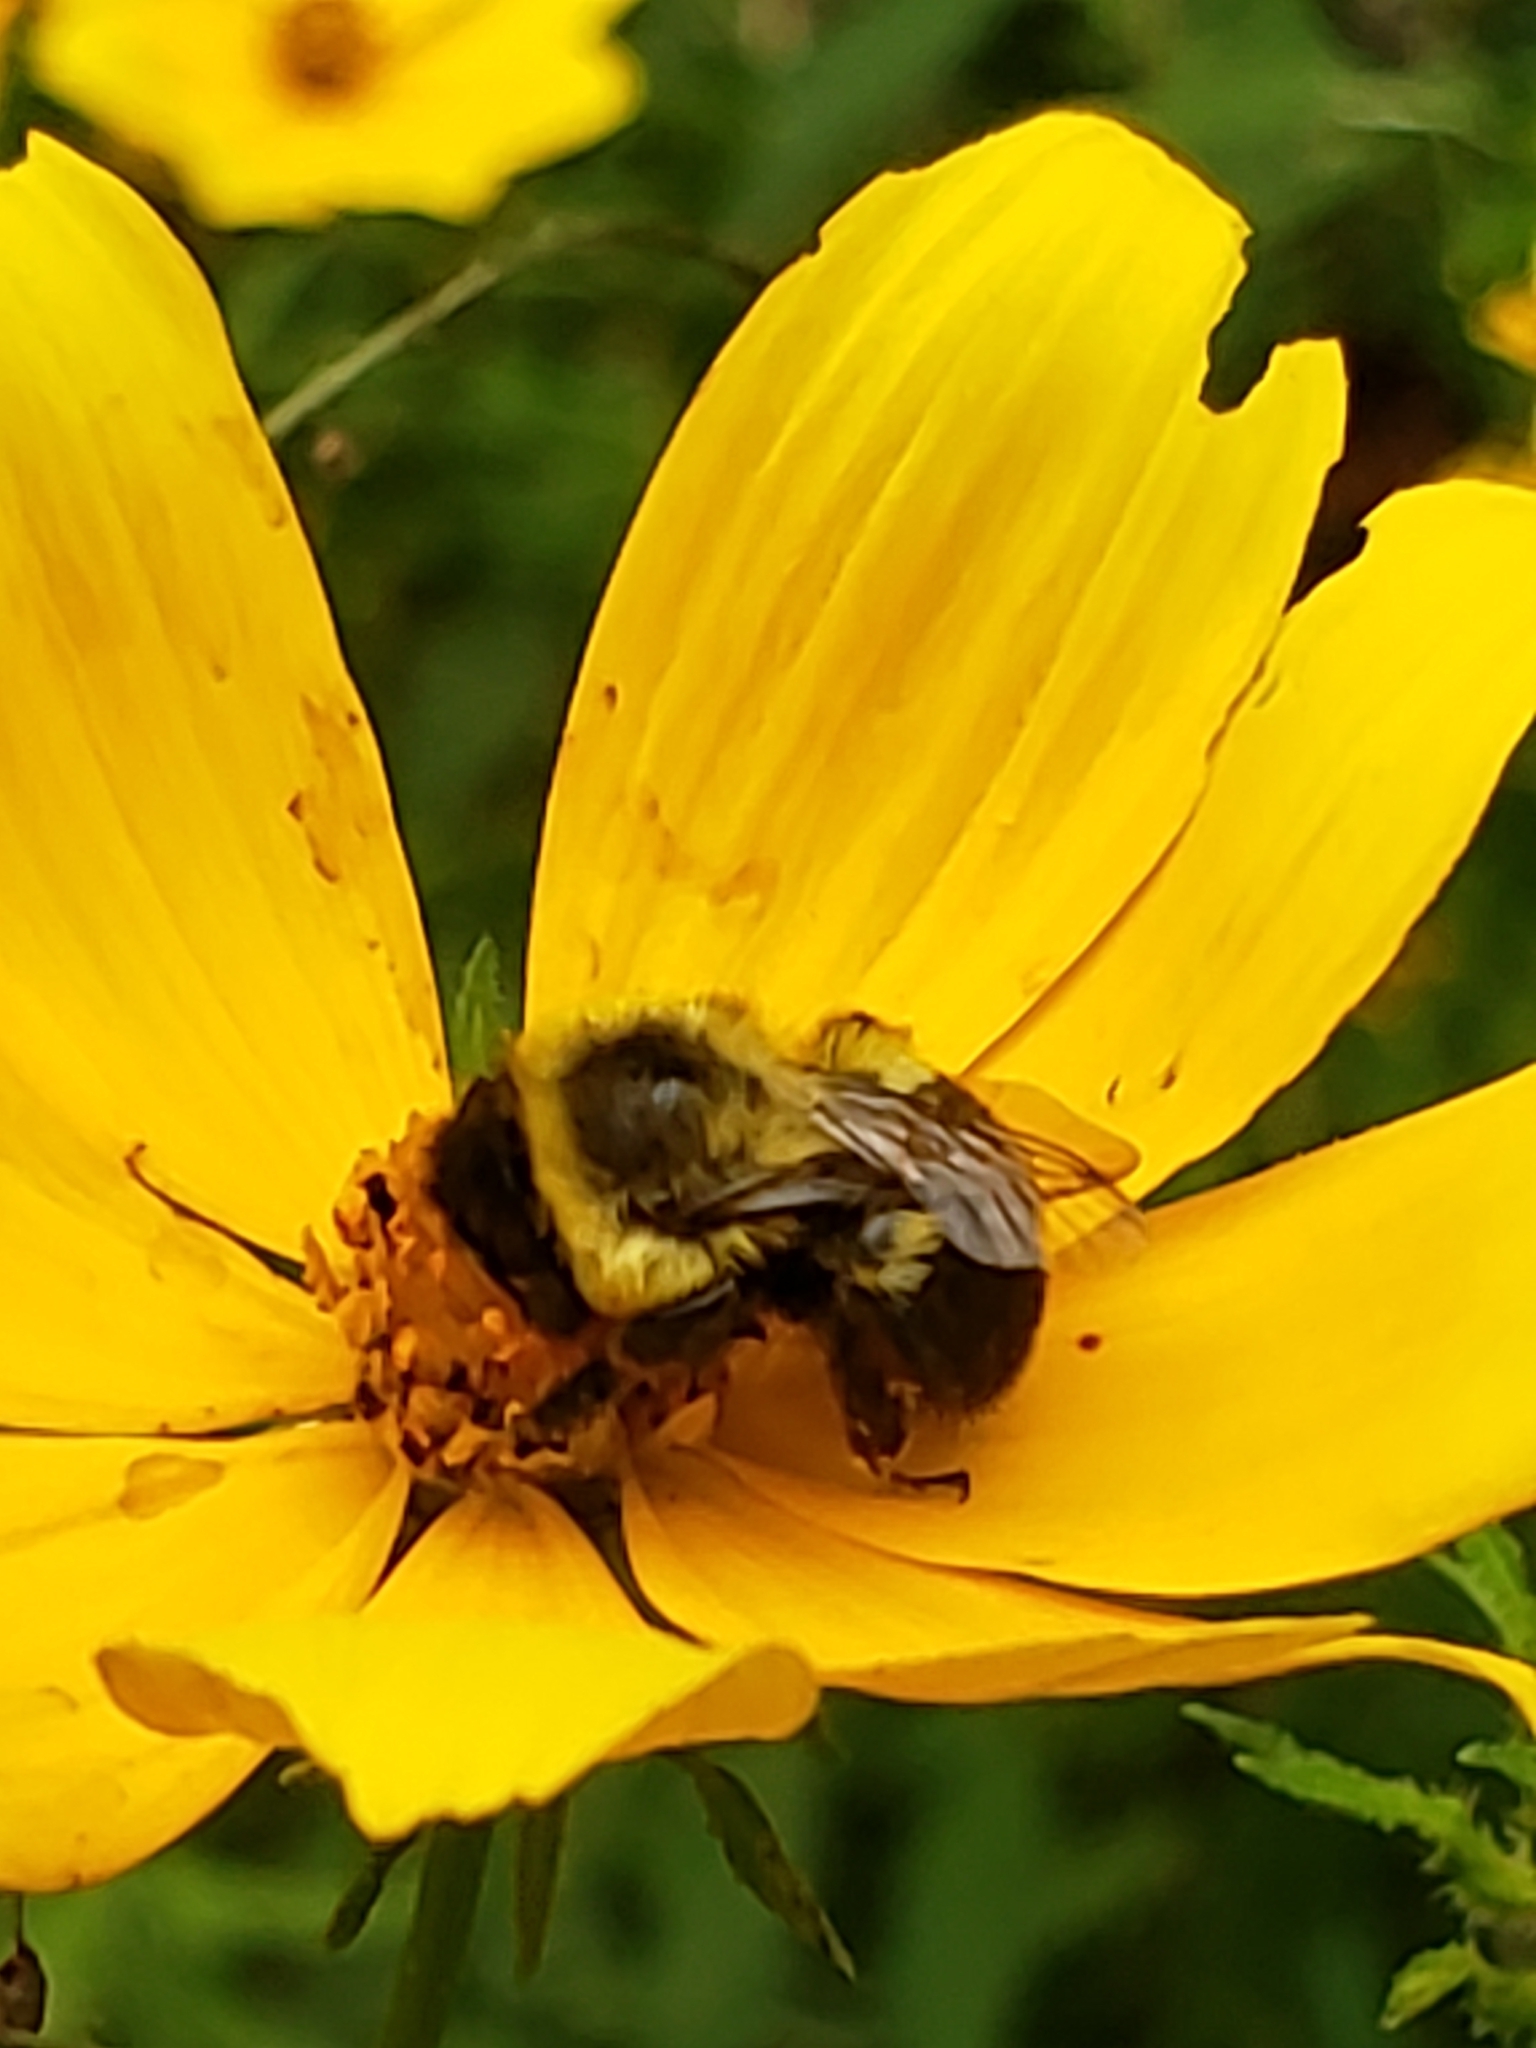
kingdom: Animalia
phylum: Arthropoda
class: Insecta
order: Hymenoptera
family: Apidae
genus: Bombus
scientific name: Bombus impatiens
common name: Common eastern bumble bee
